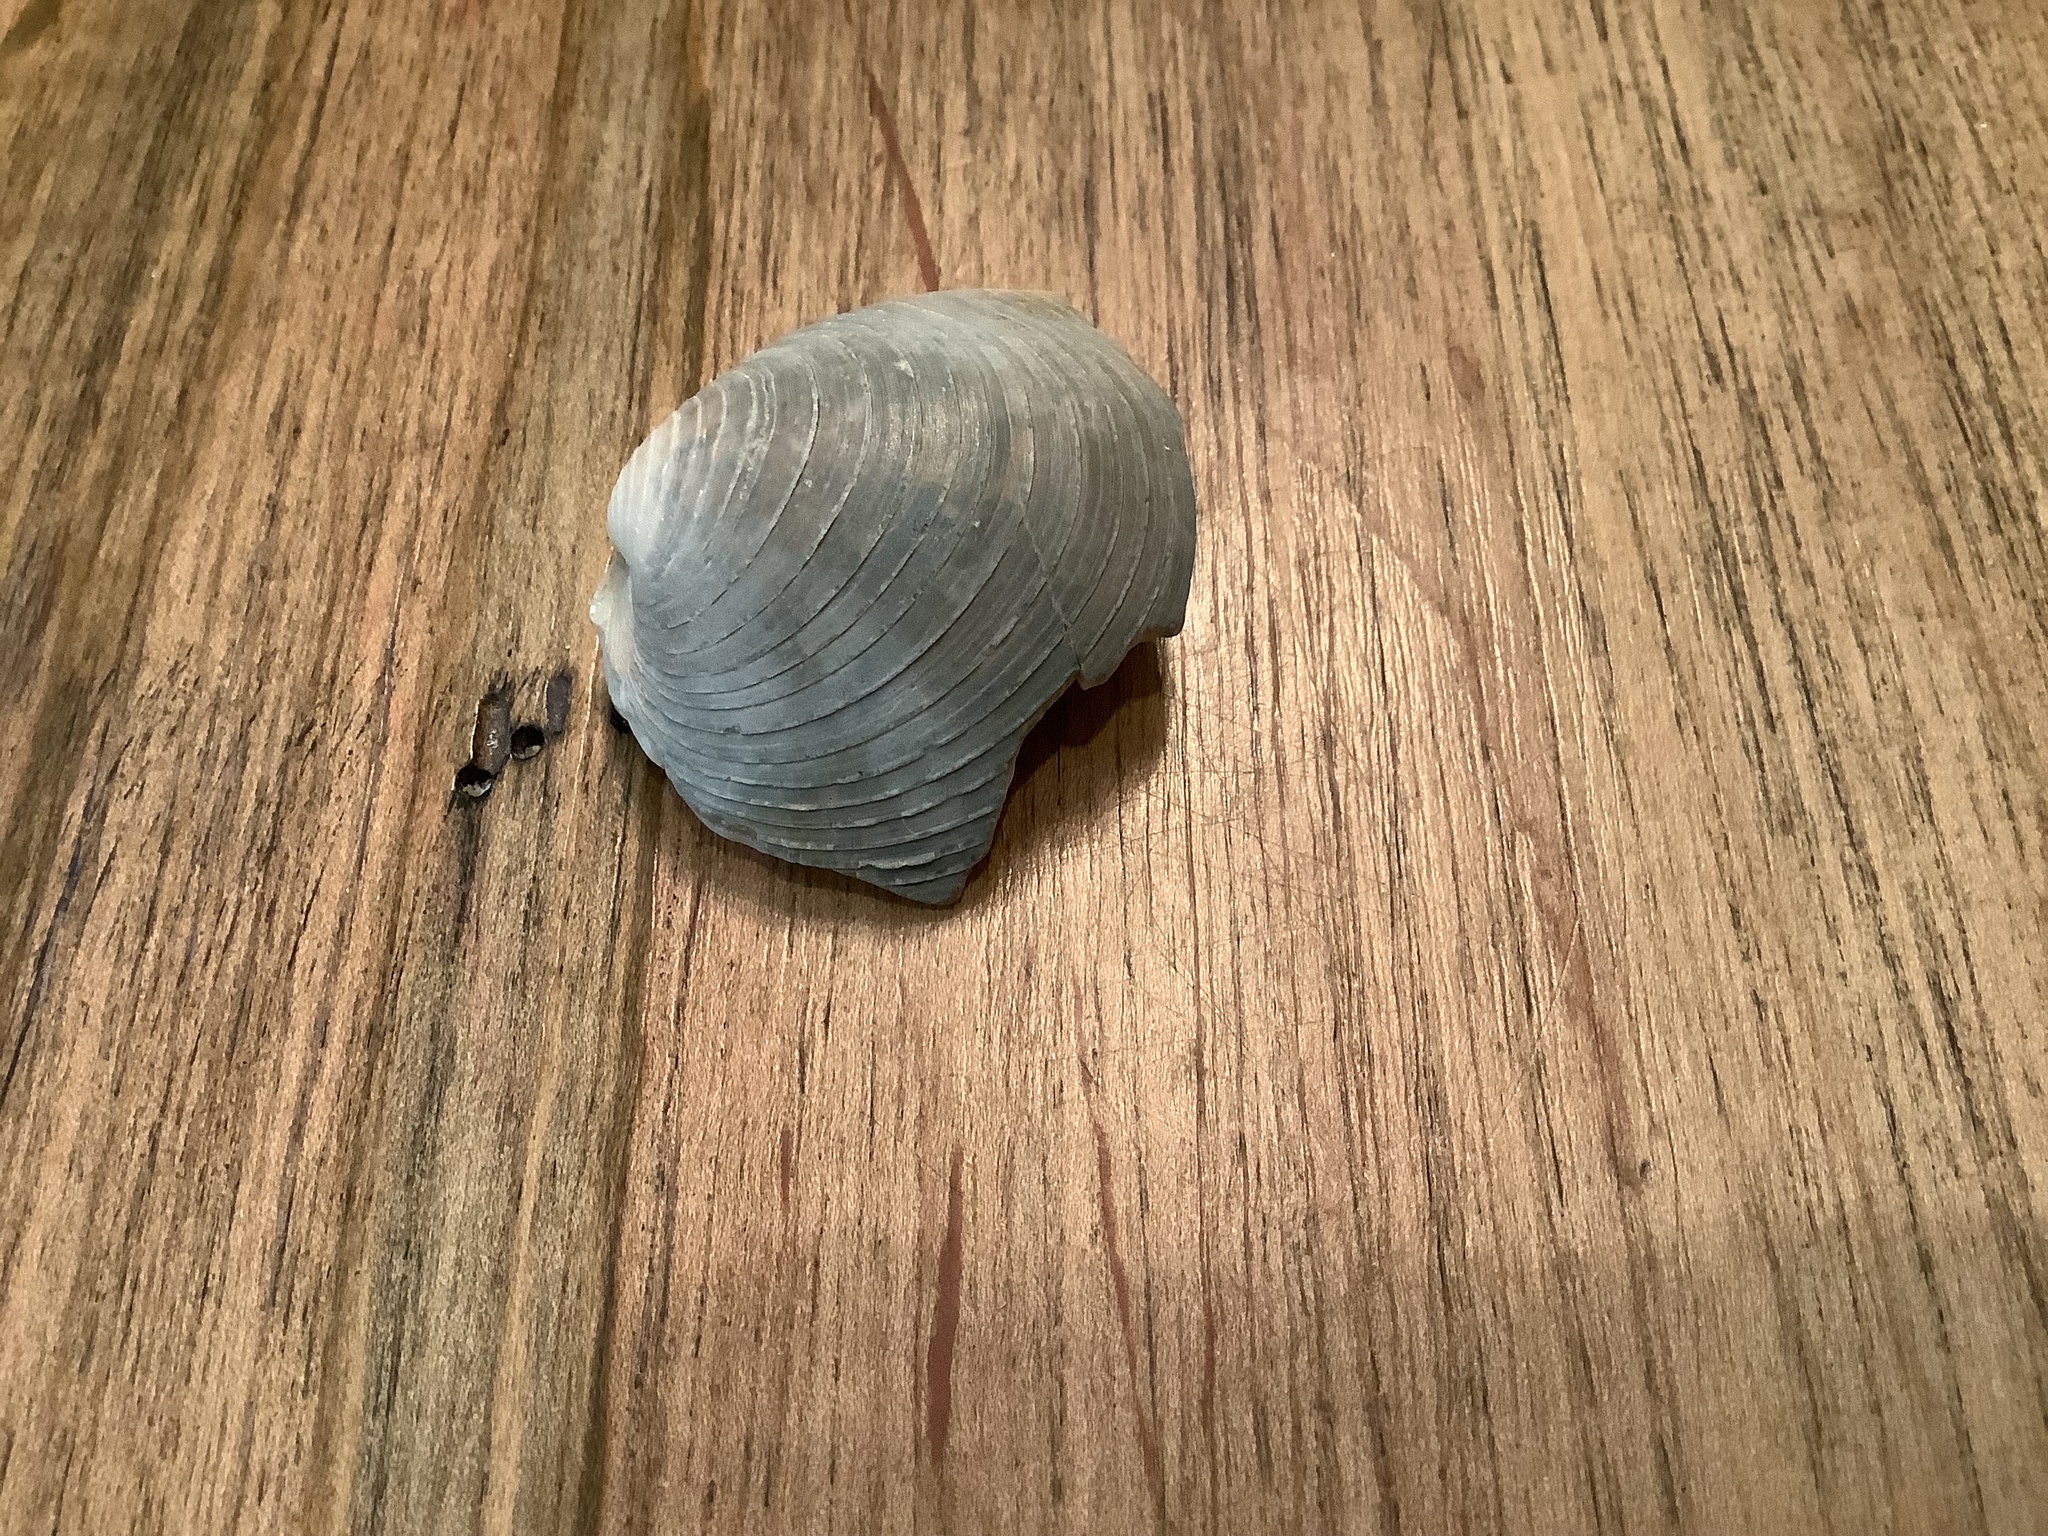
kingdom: Animalia
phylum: Mollusca
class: Bivalvia
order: Venerida
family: Veneridae
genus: Mercenaria
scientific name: Mercenaria campechiensis
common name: Südliche quahog-muschel
